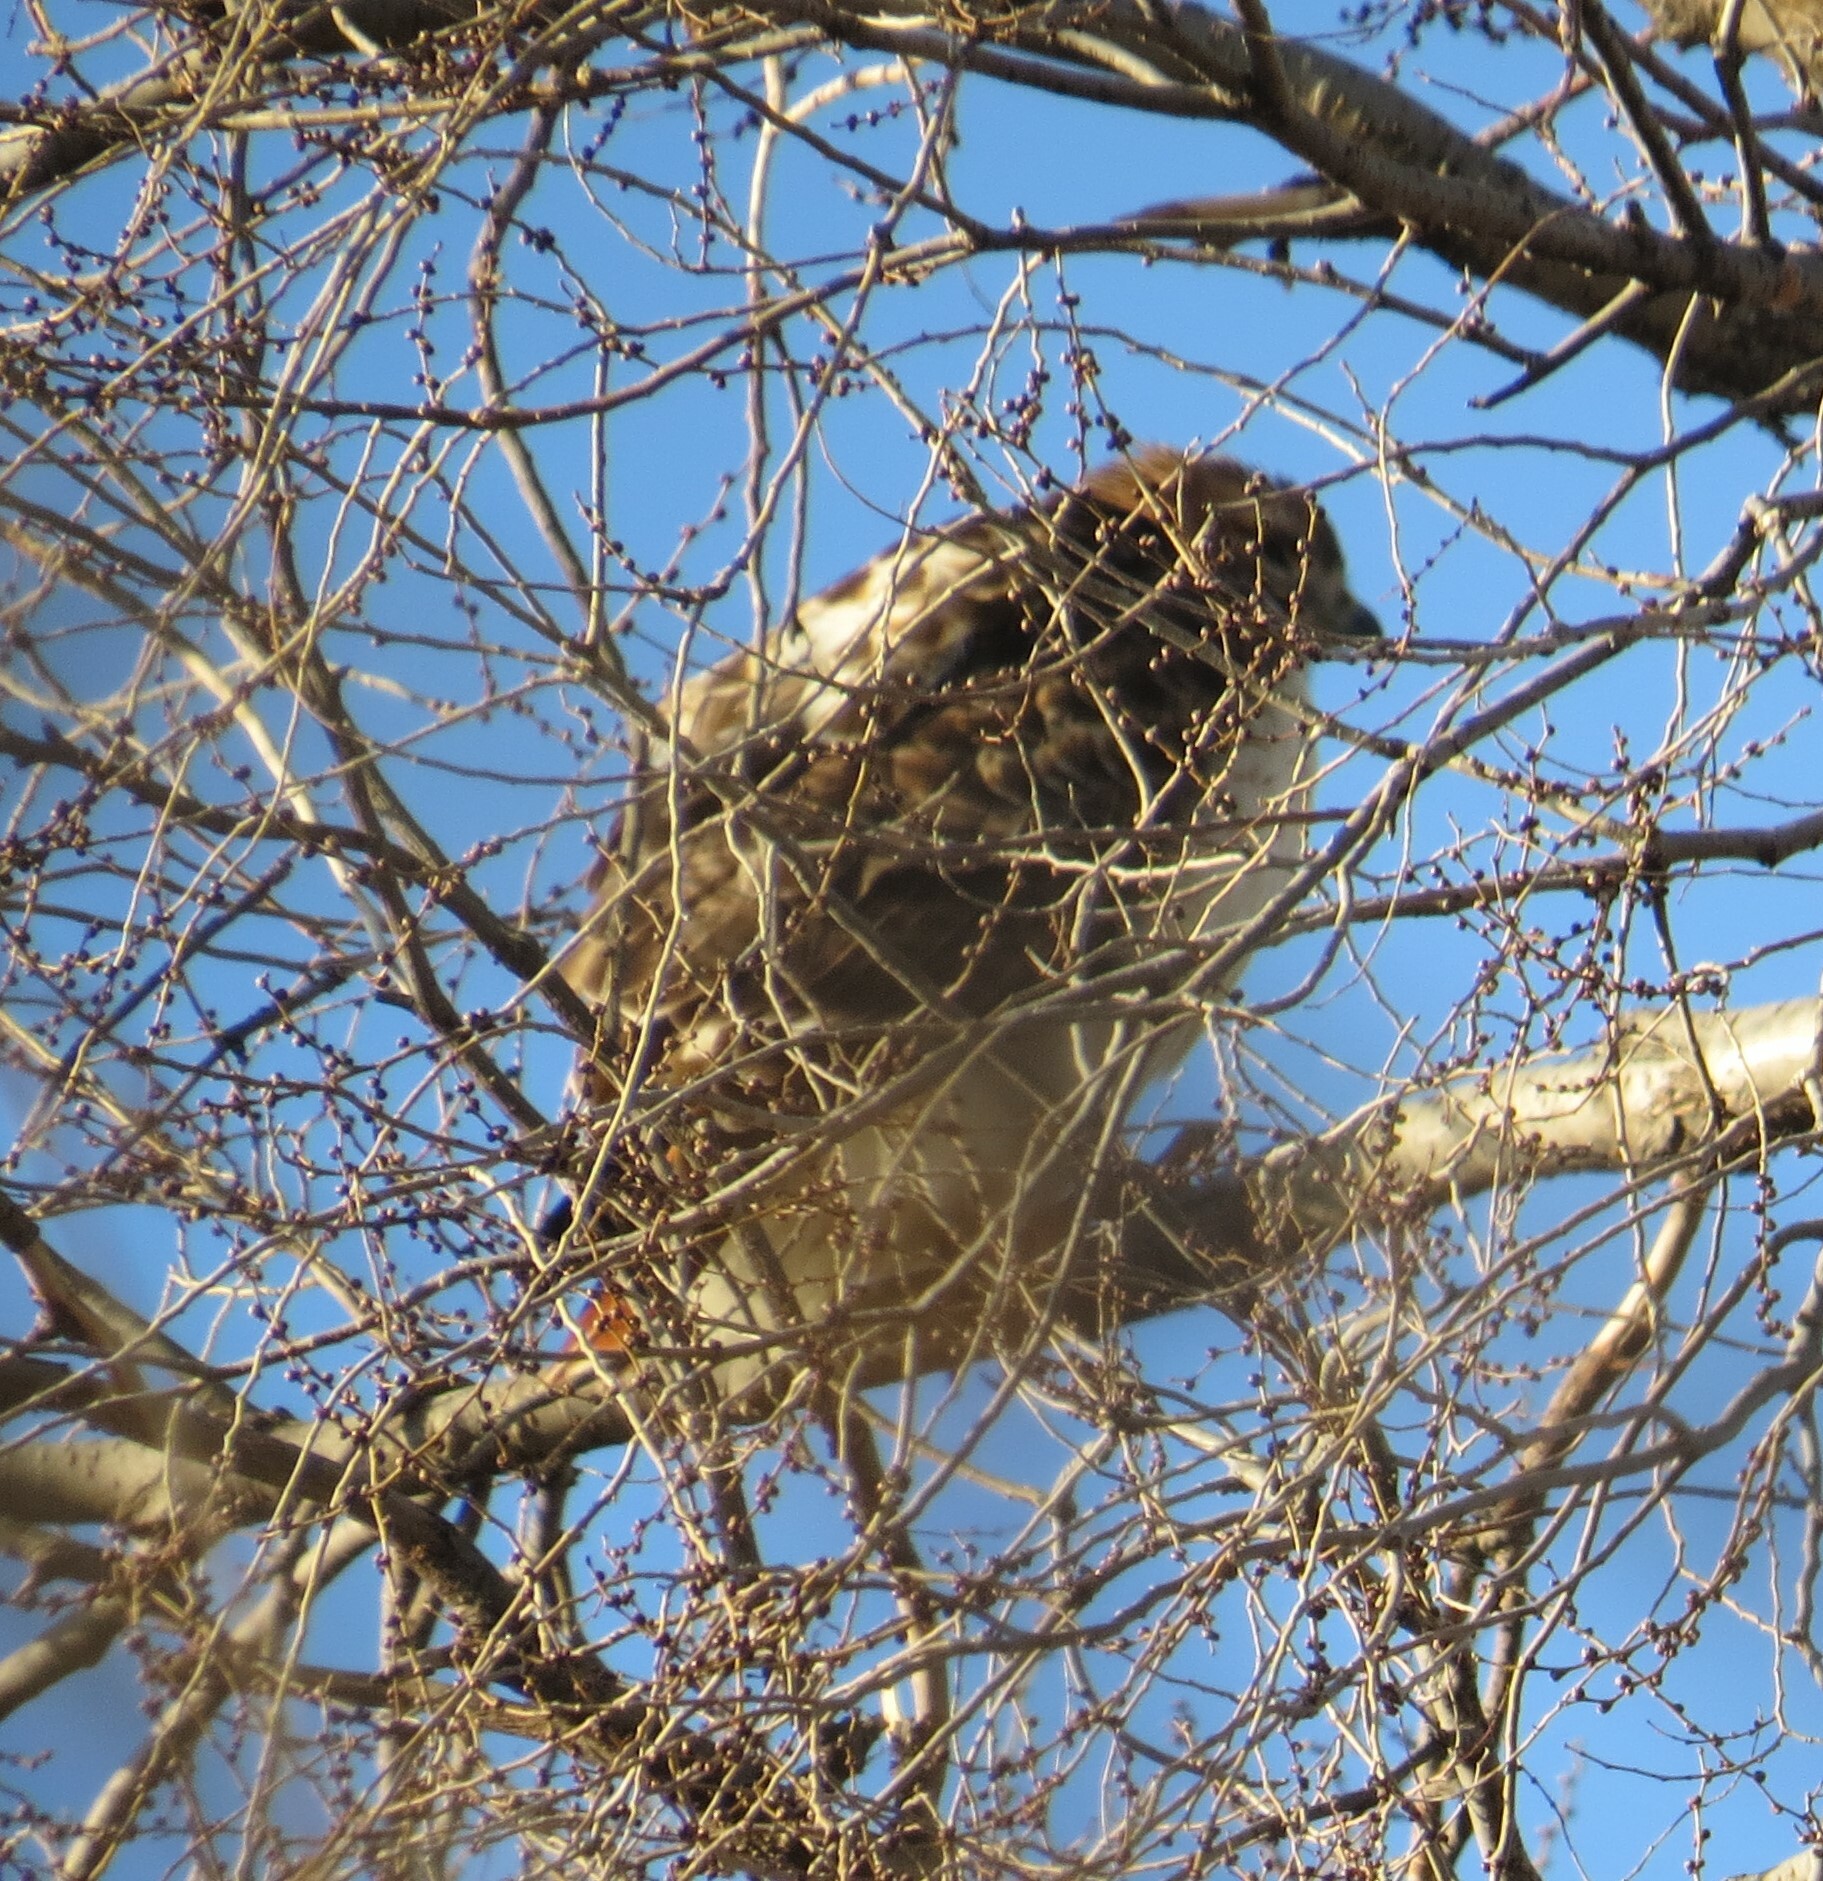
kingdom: Animalia
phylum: Chordata
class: Aves
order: Accipitriformes
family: Accipitridae
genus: Buteo
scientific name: Buteo jamaicensis
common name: Red-tailed hawk
